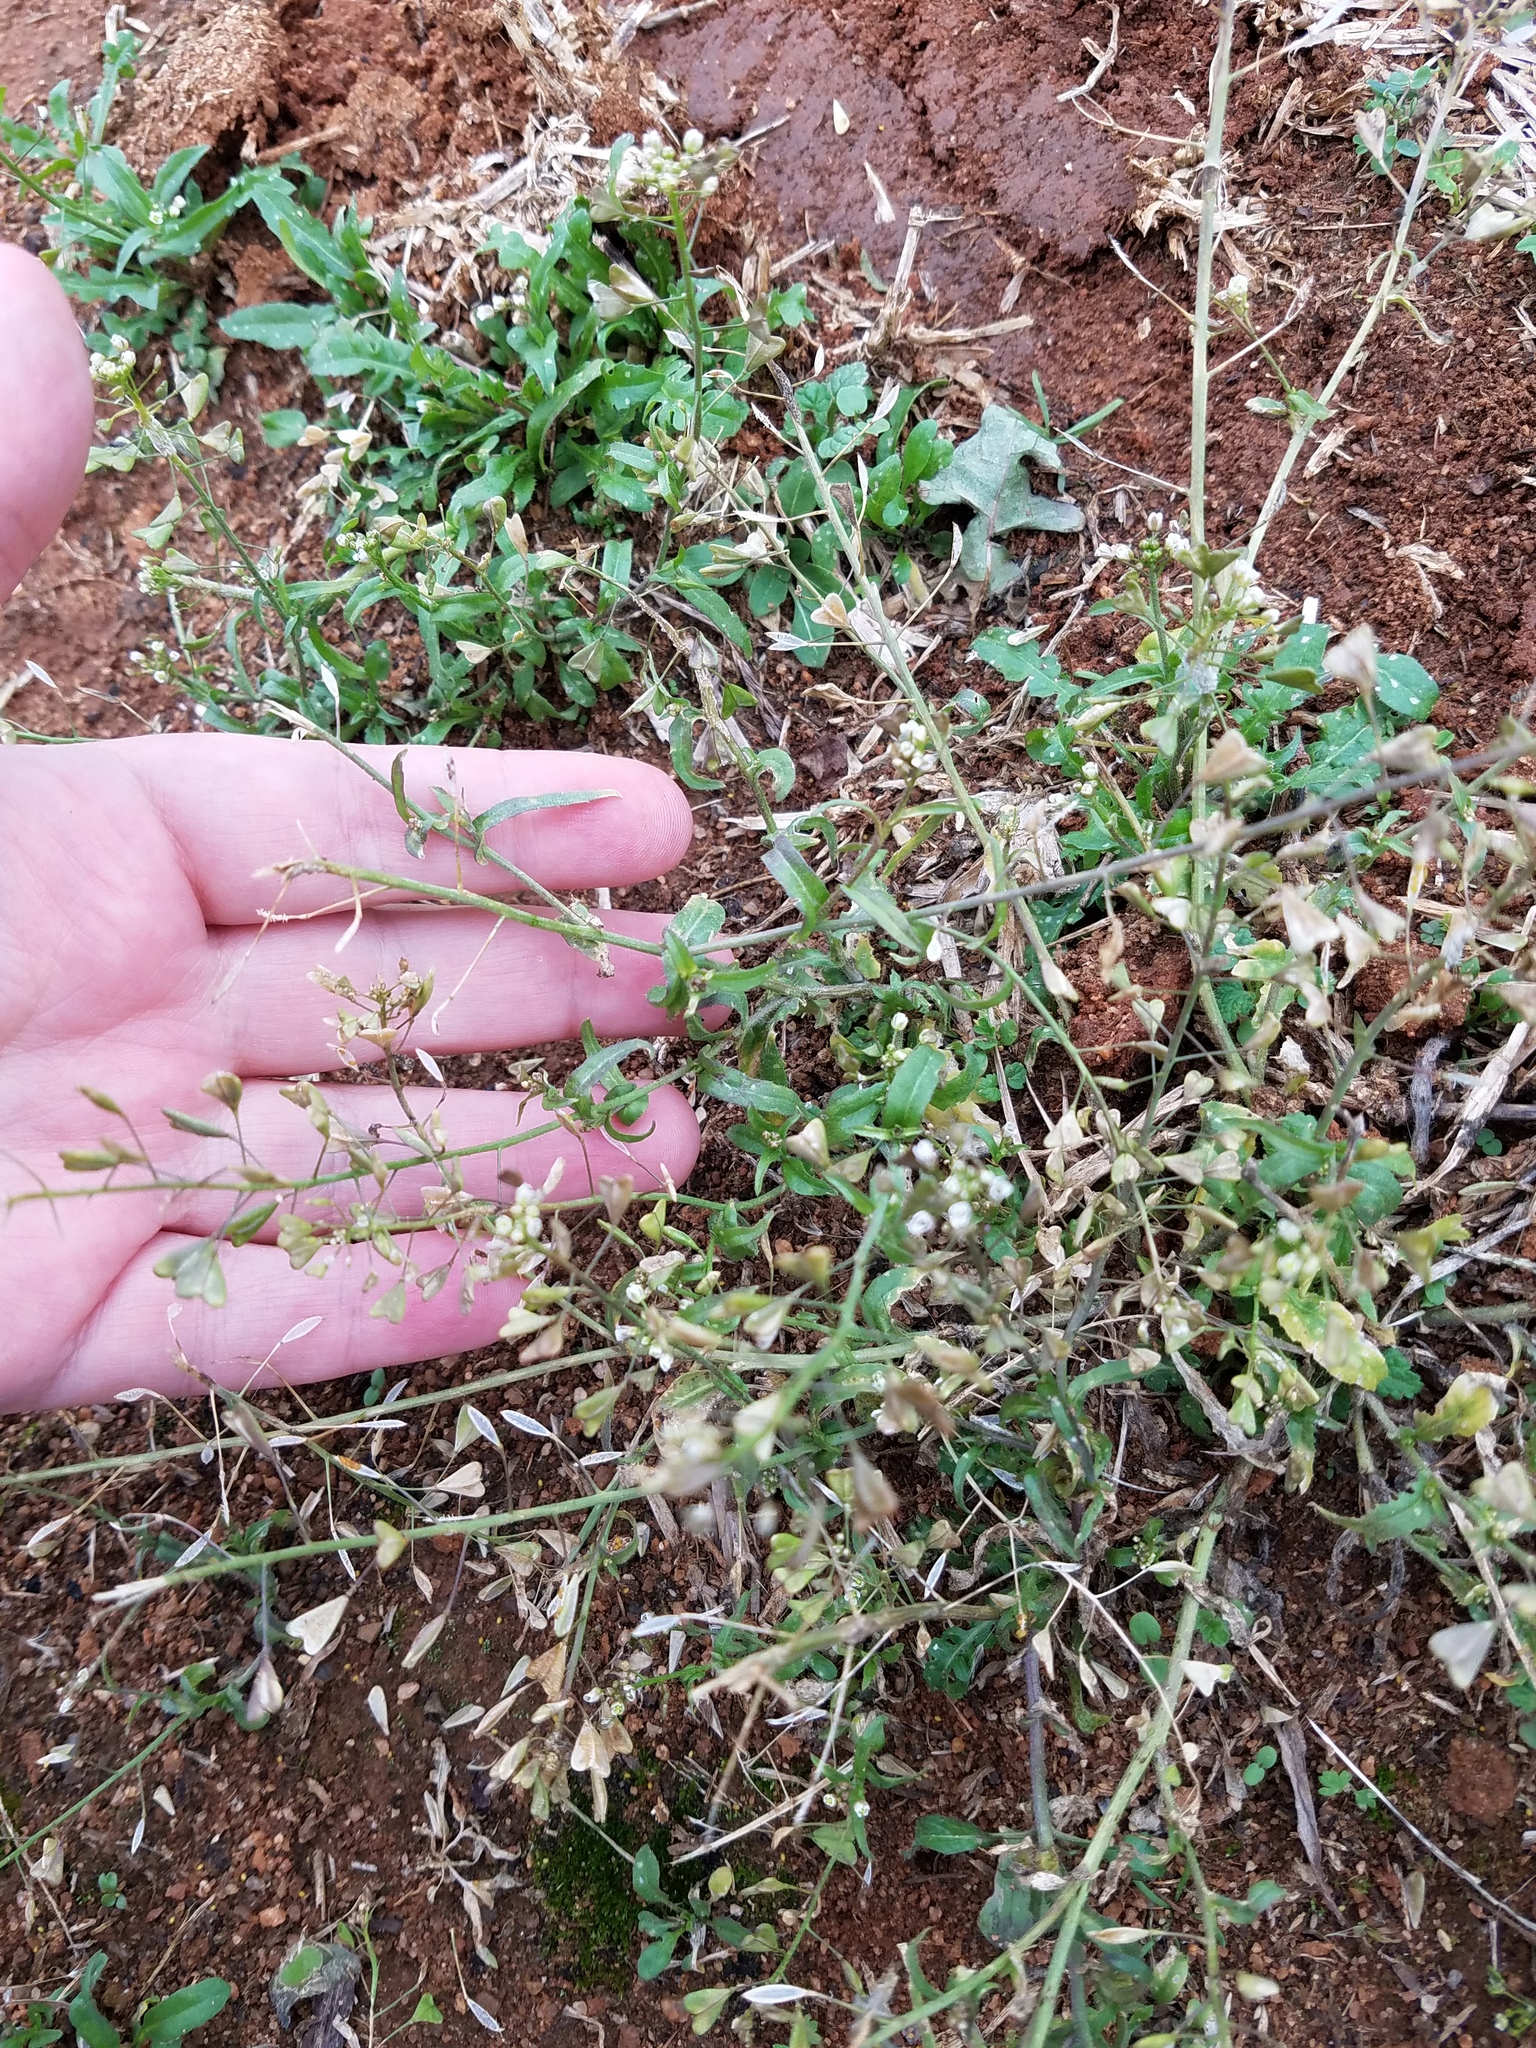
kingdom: Plantae
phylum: Tracheophyta
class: Magnoliopsida
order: Brassicales
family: Brassicaceae
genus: Capsella
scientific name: Capsella bursa-pastoris
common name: Shepherd's purse
